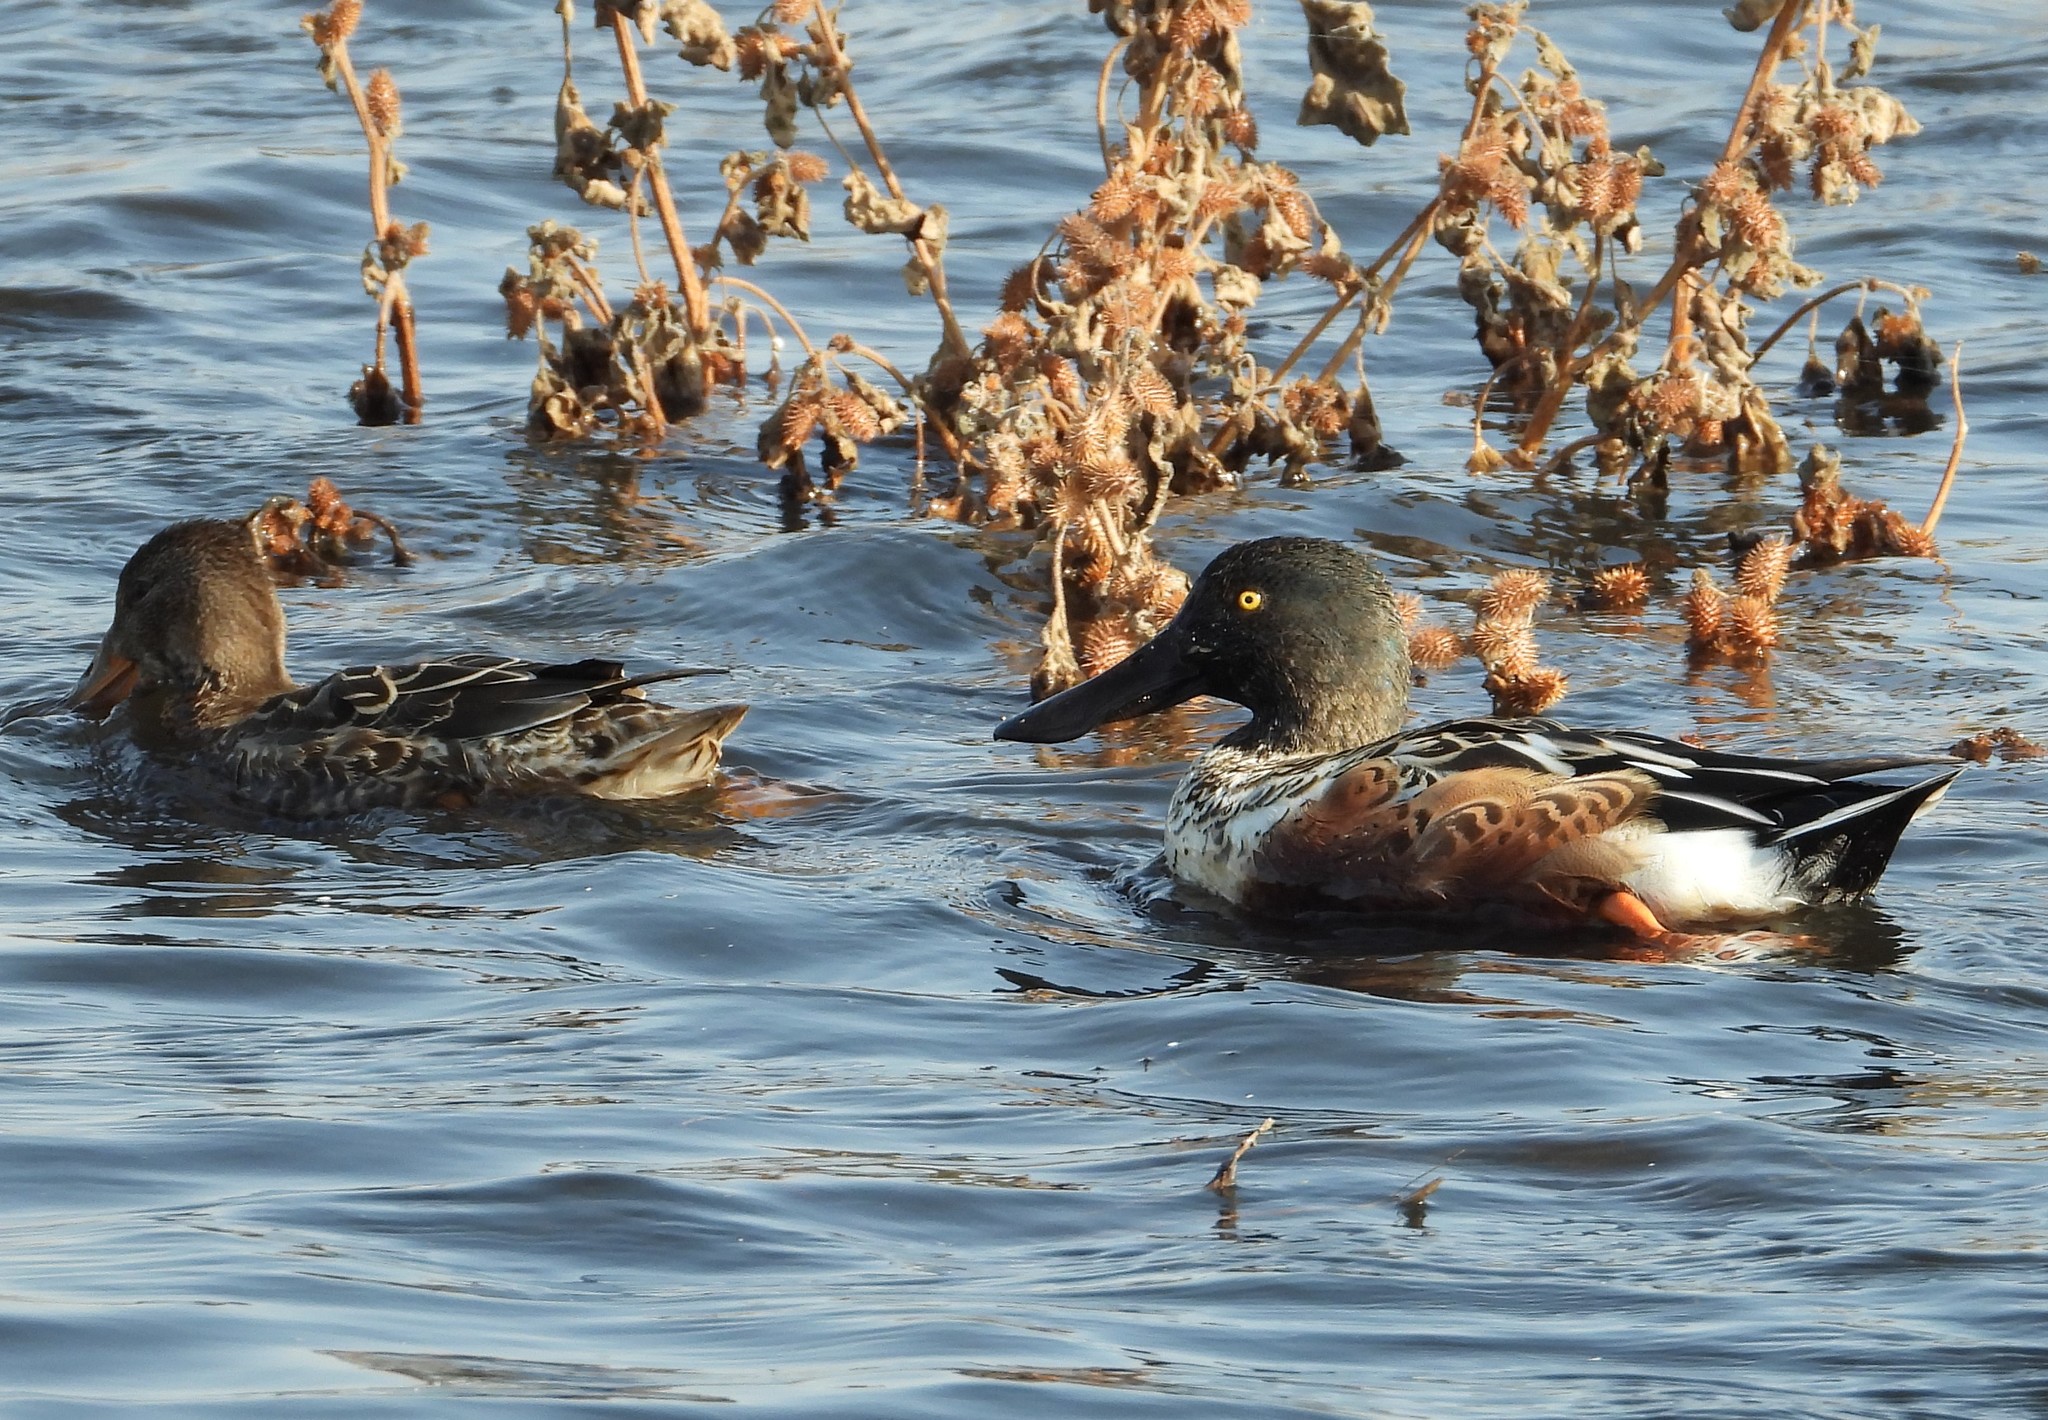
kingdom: Animalia
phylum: Chordata
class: Aves
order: Anseriformes
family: Anatidae
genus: Spatula
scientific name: Spatula clypeata
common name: Northern shoveler
